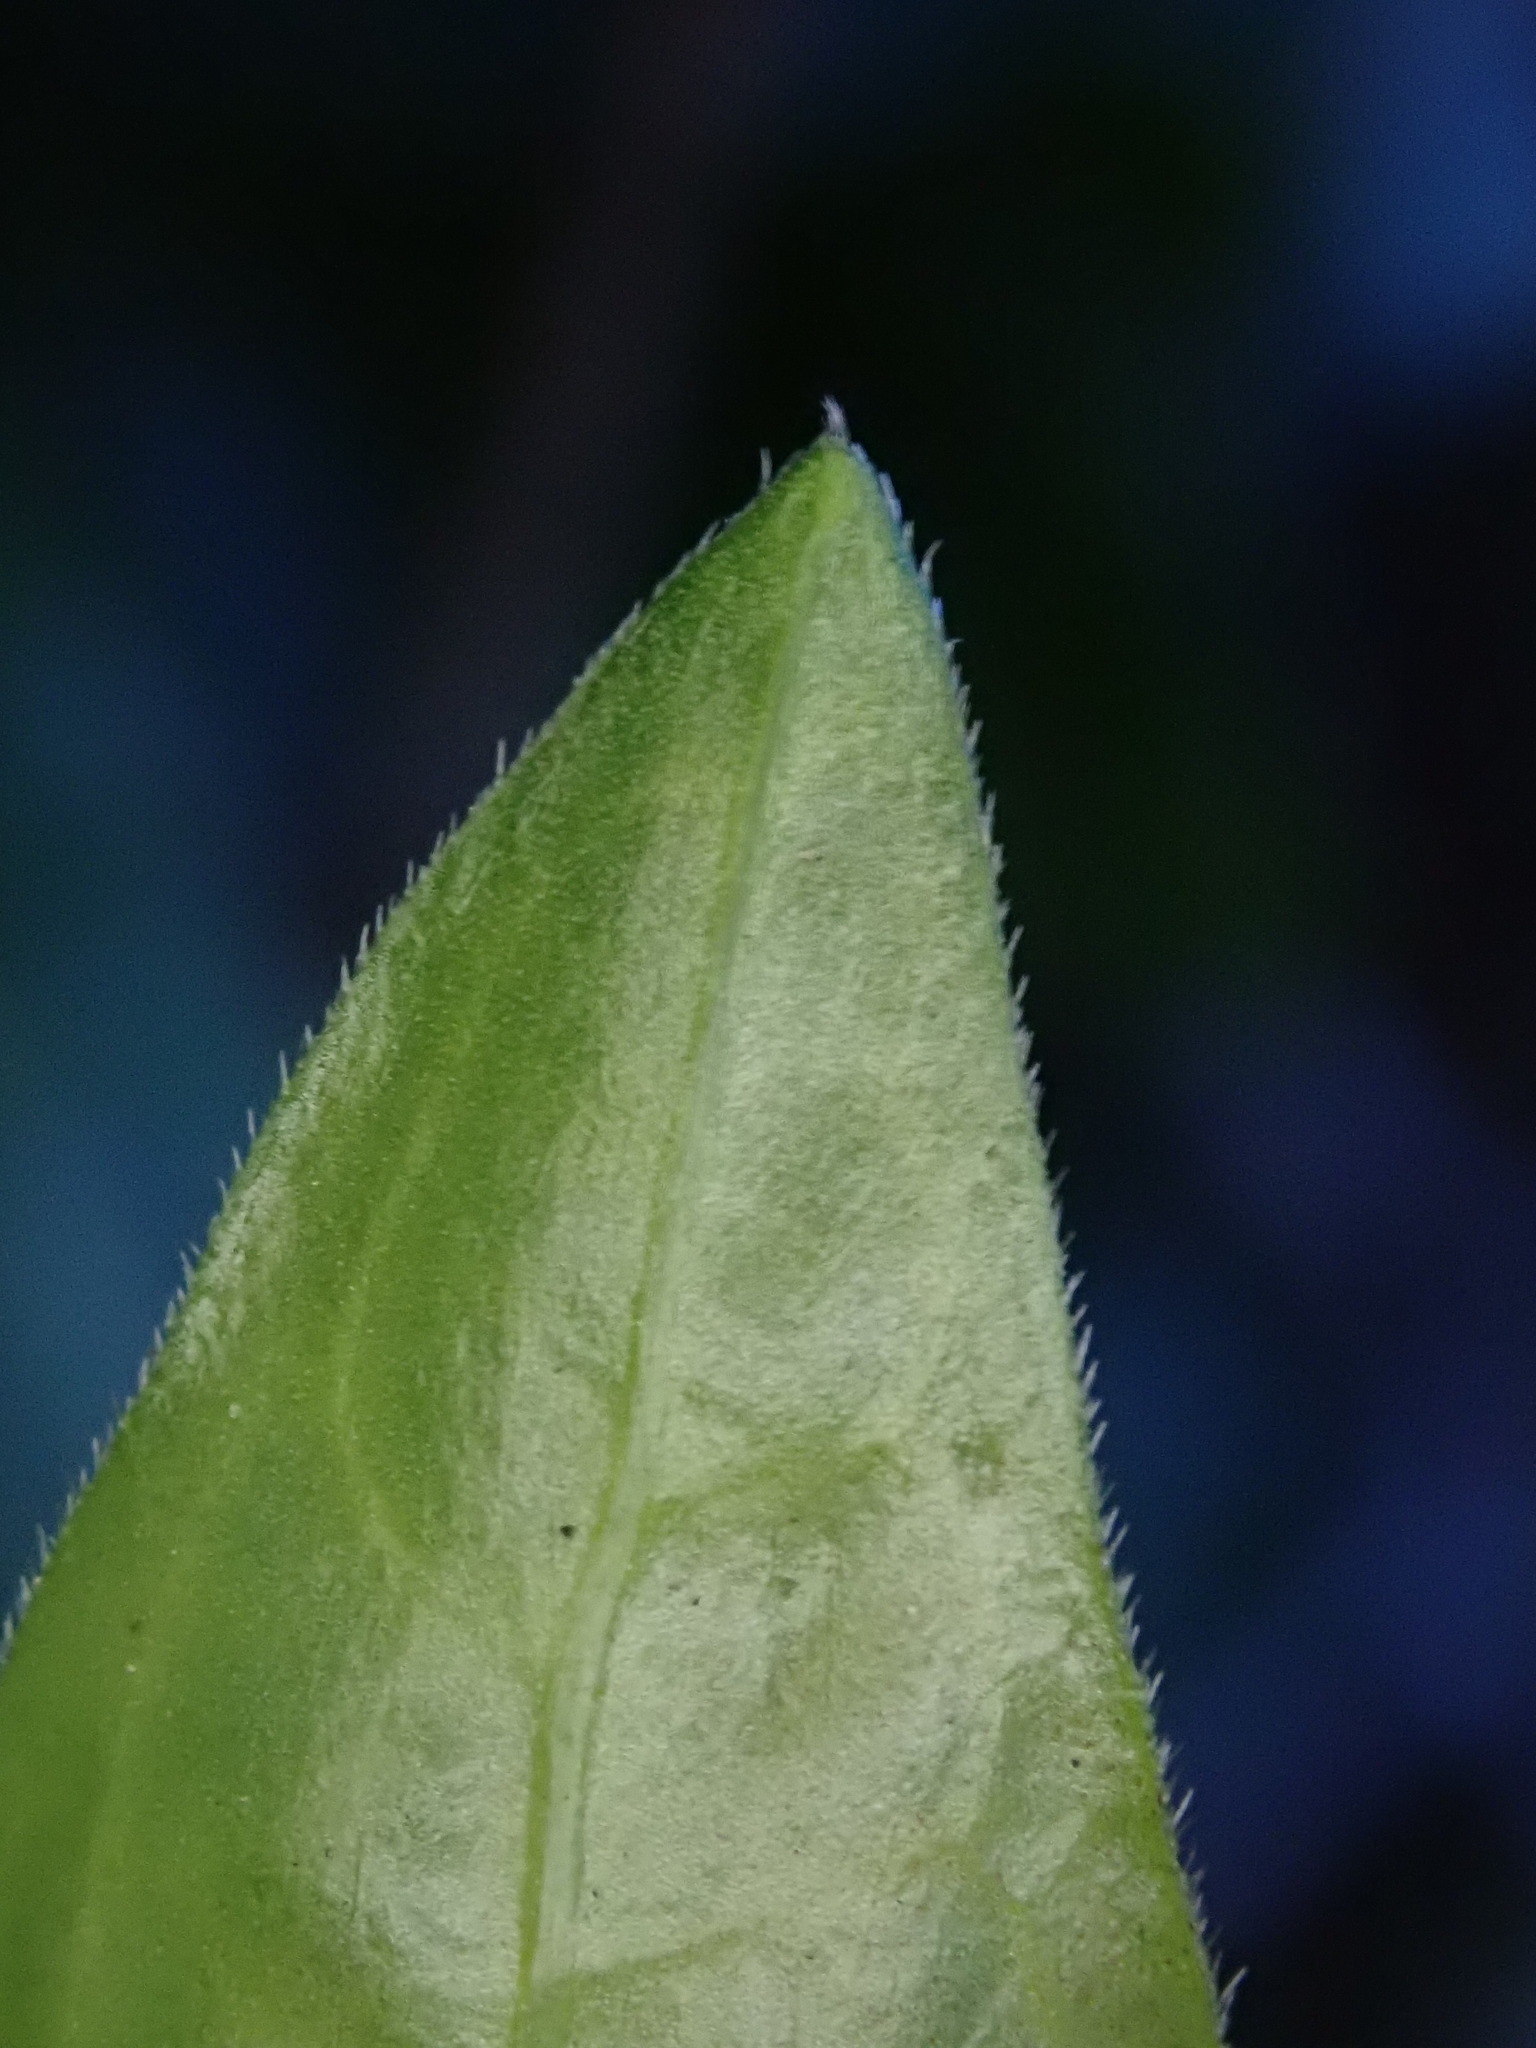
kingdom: Plantae
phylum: Tracheophyta
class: Magnoliopsida
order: Gentianales
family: Apocynaceae
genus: Vinca
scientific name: Vinca major
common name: Greater periwinkle
